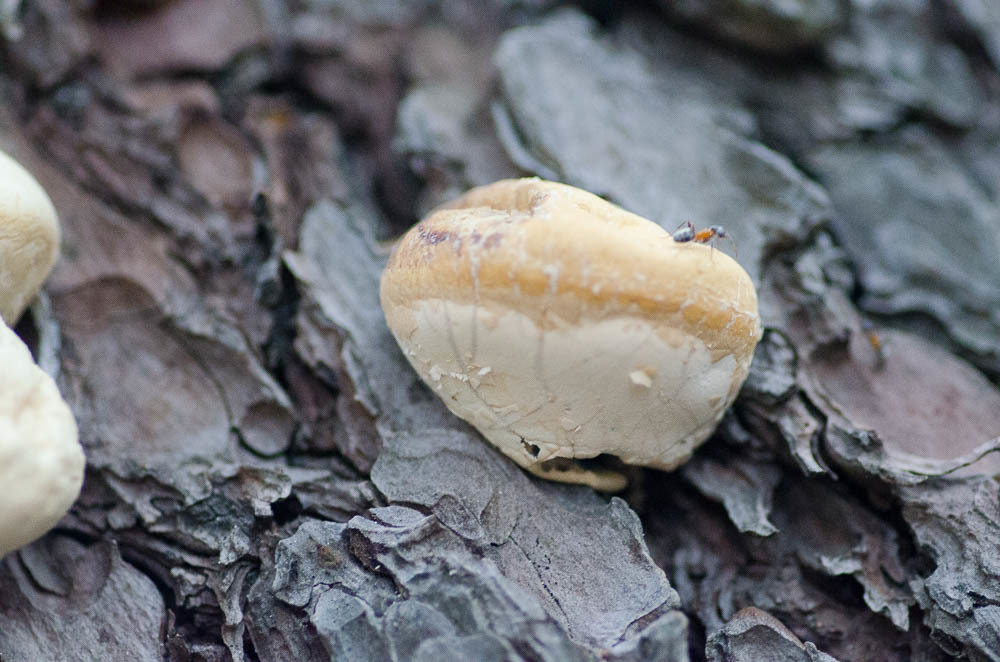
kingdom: Fungi
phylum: Basidiomycota
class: Agaricomycetes
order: Polyporales
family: Polyporaceae
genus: Cryptoporus
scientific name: Cryptoporus volvatus
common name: Veiled polypore
